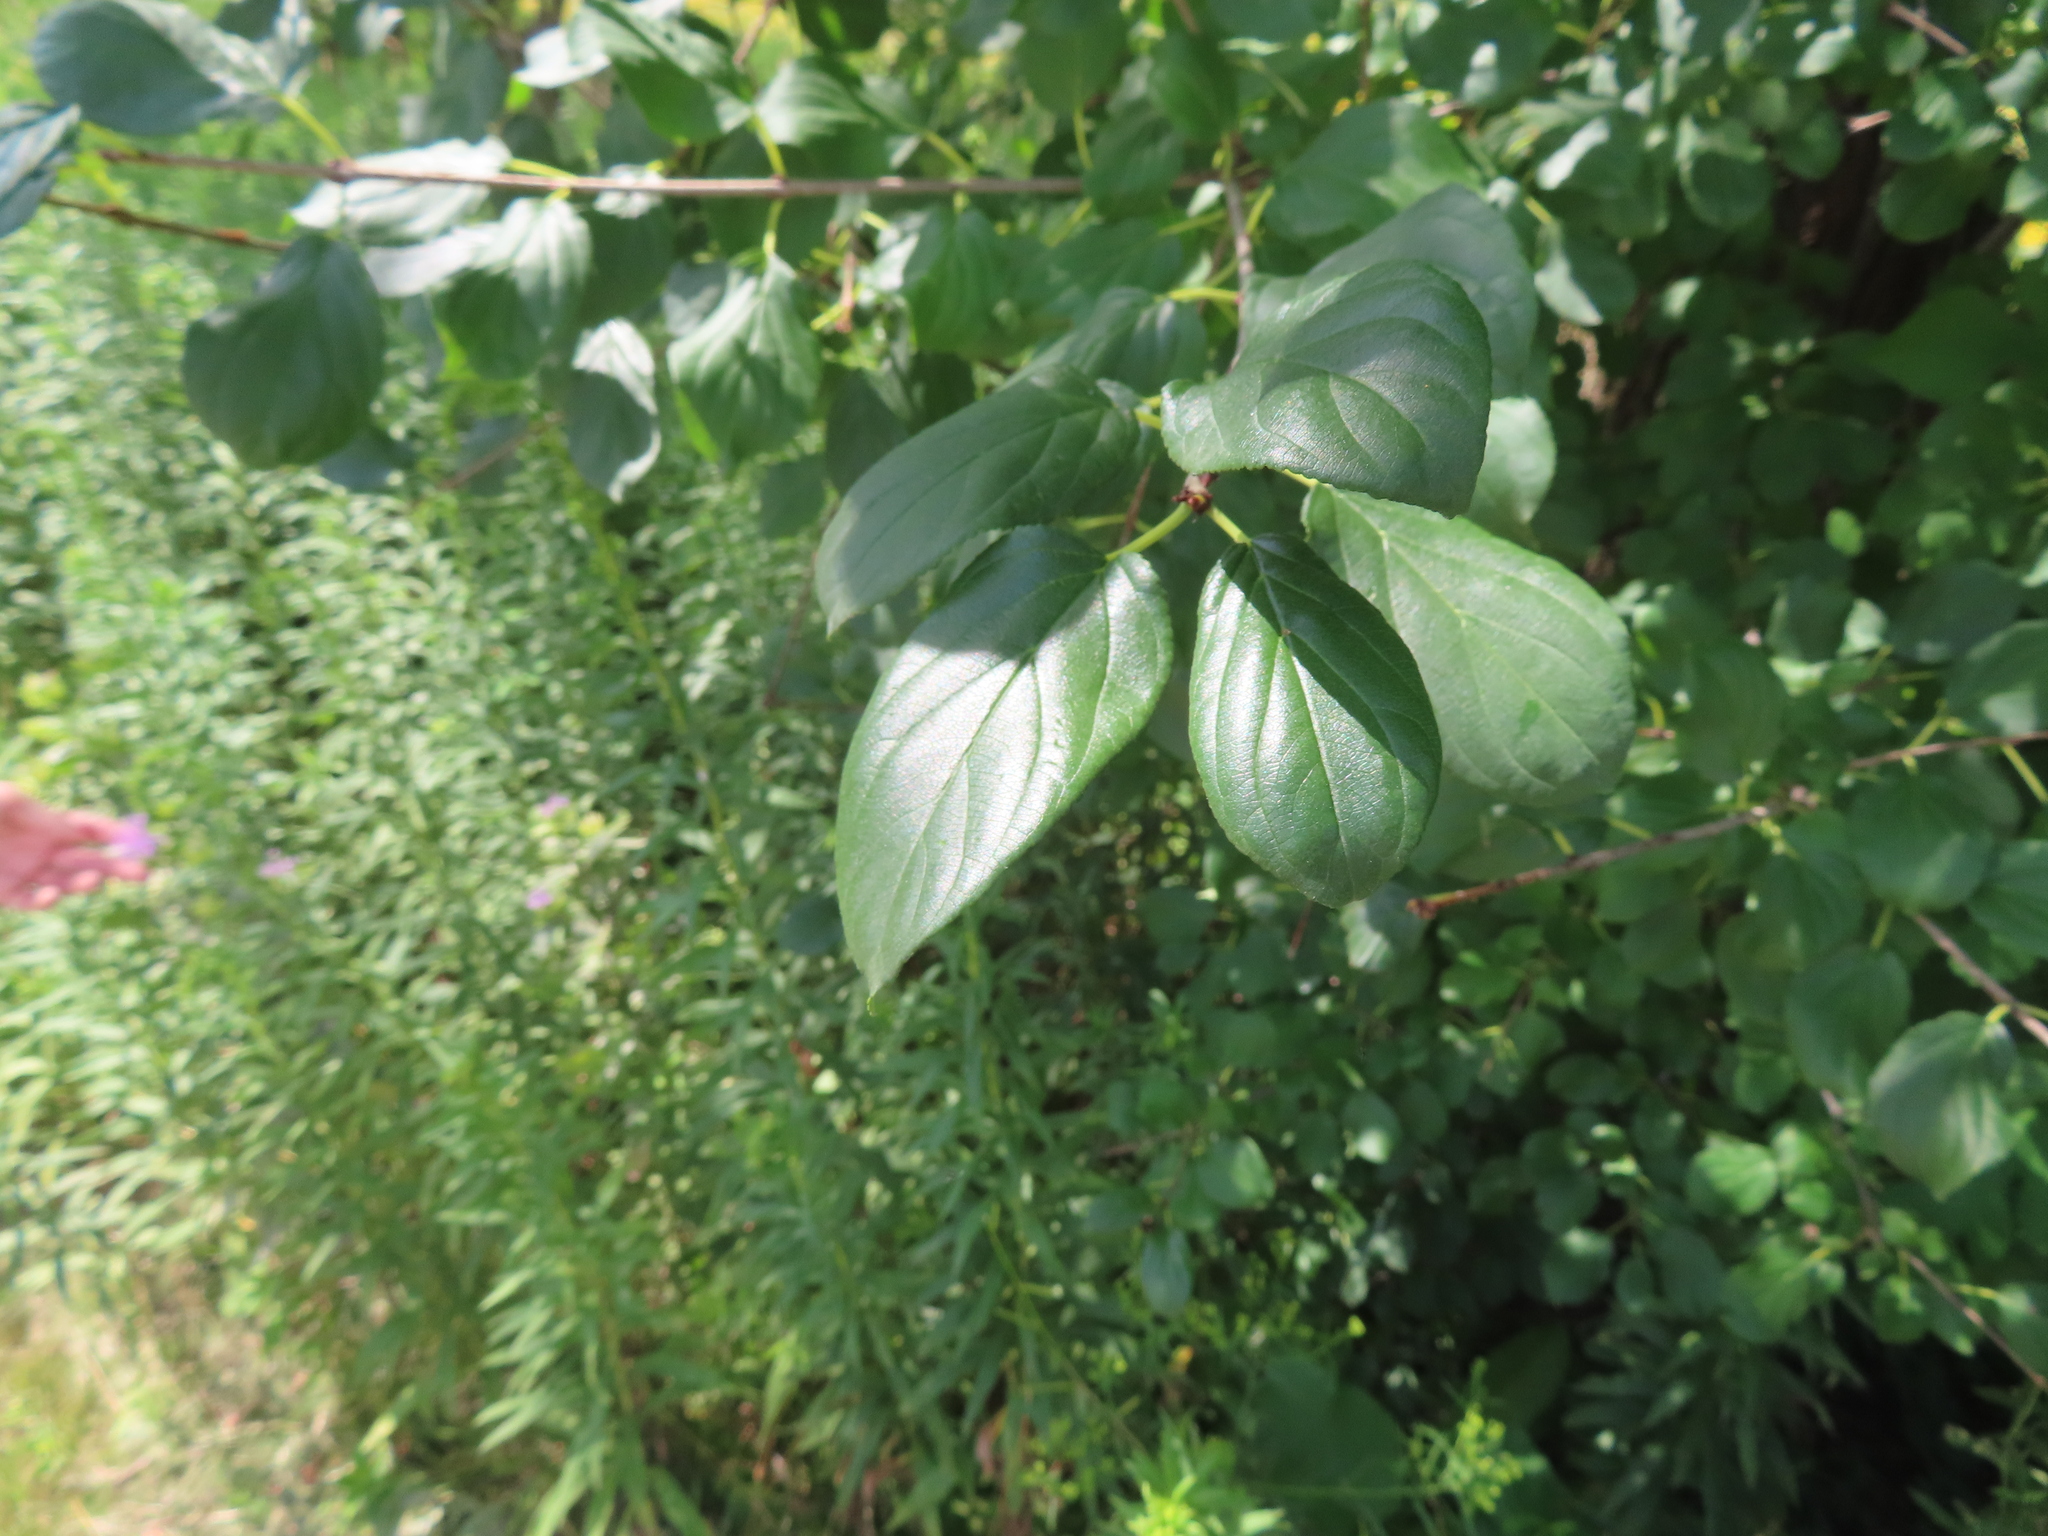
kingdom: Plantae
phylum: Tracheophyta
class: Magnoliopsida
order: Rosales
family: Rhamnaceae
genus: Rhamnus
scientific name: Rhamnus cathartica
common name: Common buckthorn
